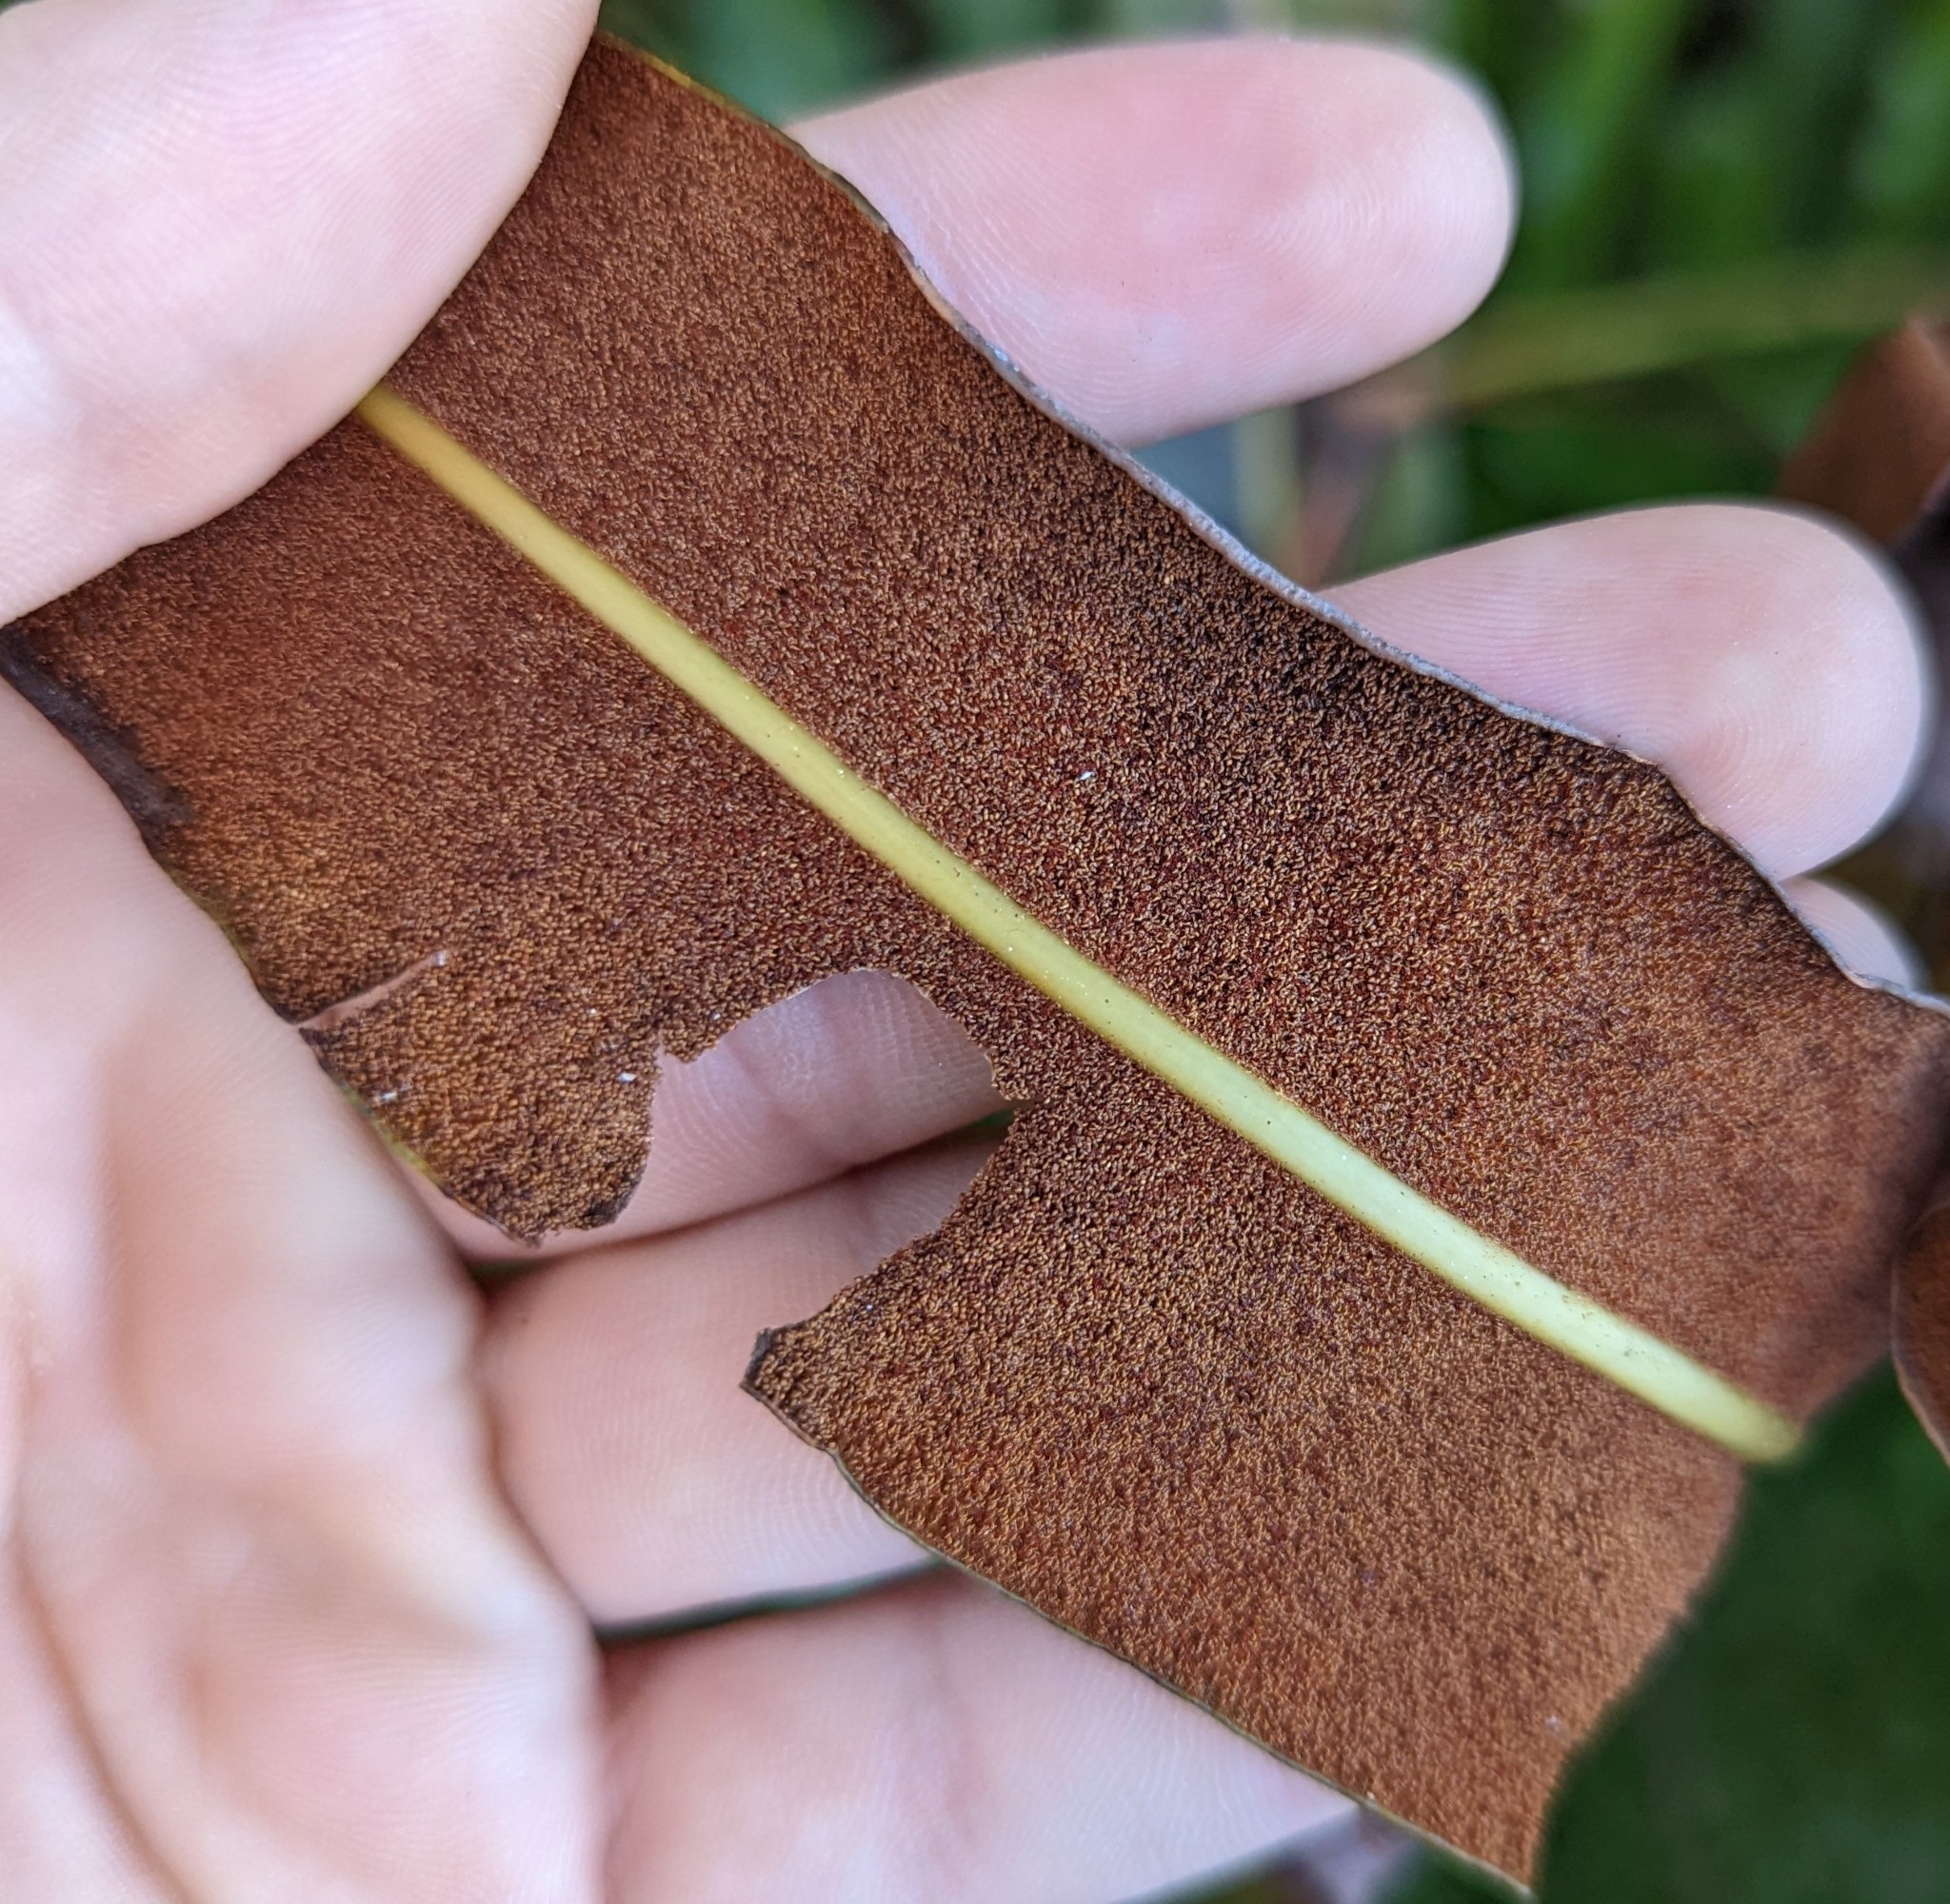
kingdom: Plantae
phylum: Tracheophyta
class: Polypodiopsida
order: Polypodiales
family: Pteridaceae
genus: Acrostichum
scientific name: Acrostichum danaeifolium
